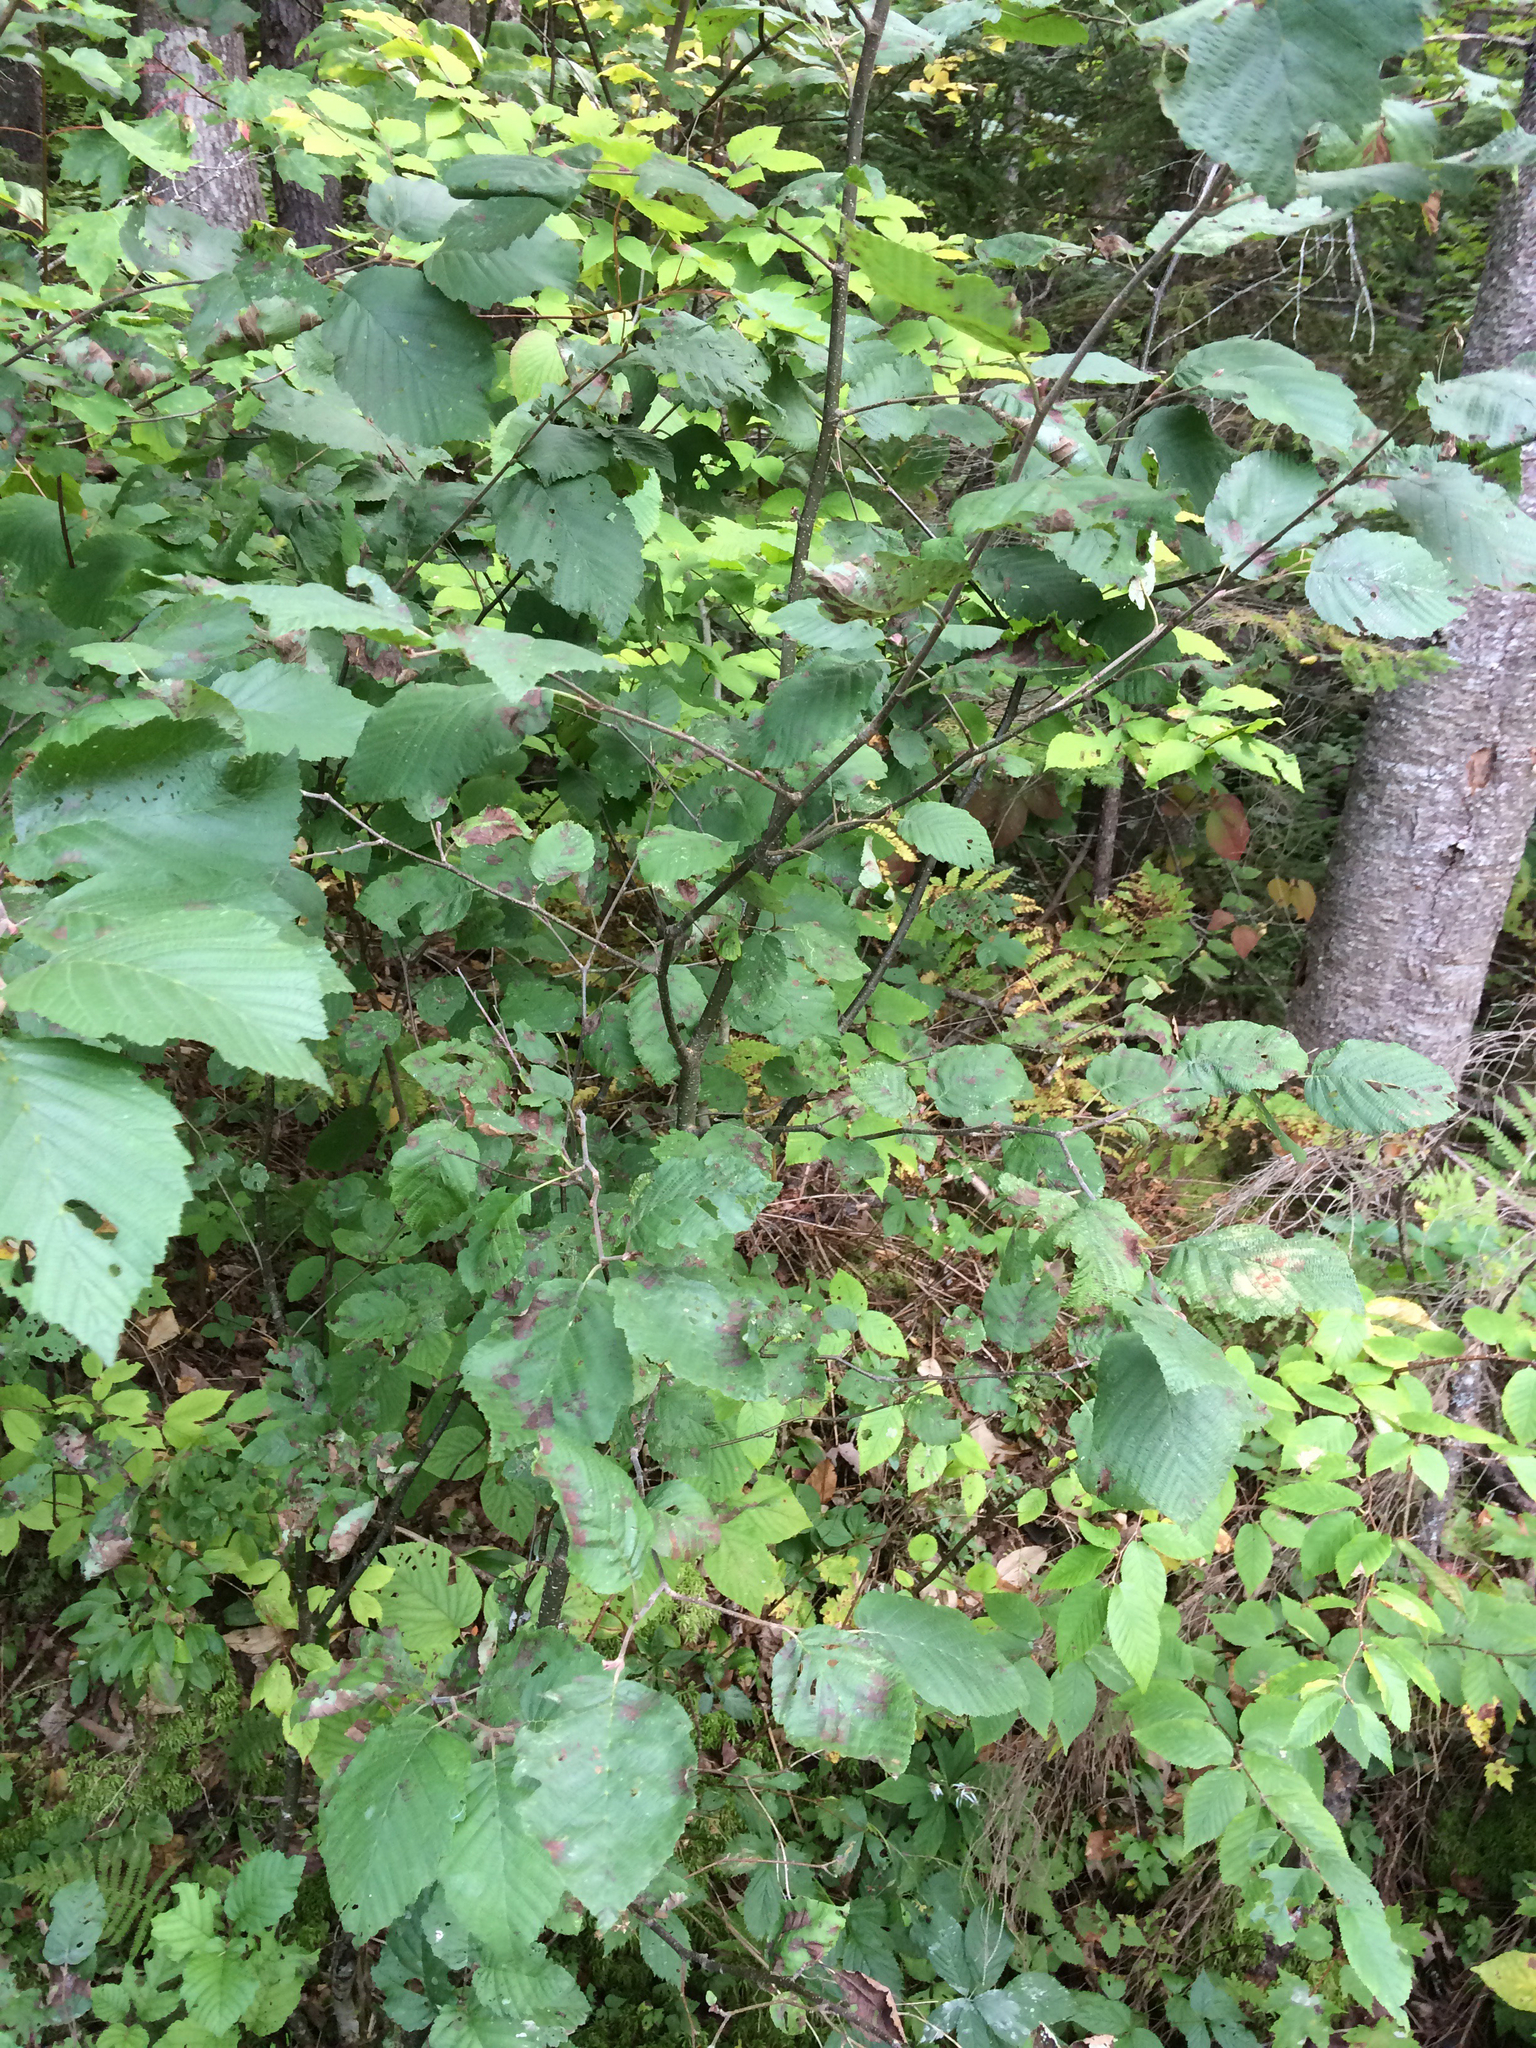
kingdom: Plantae
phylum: Tracheophyta
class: Magnoliopsida
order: Fagales
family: Betulaceae
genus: Alnus
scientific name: Alnus incana
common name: Grey alder
